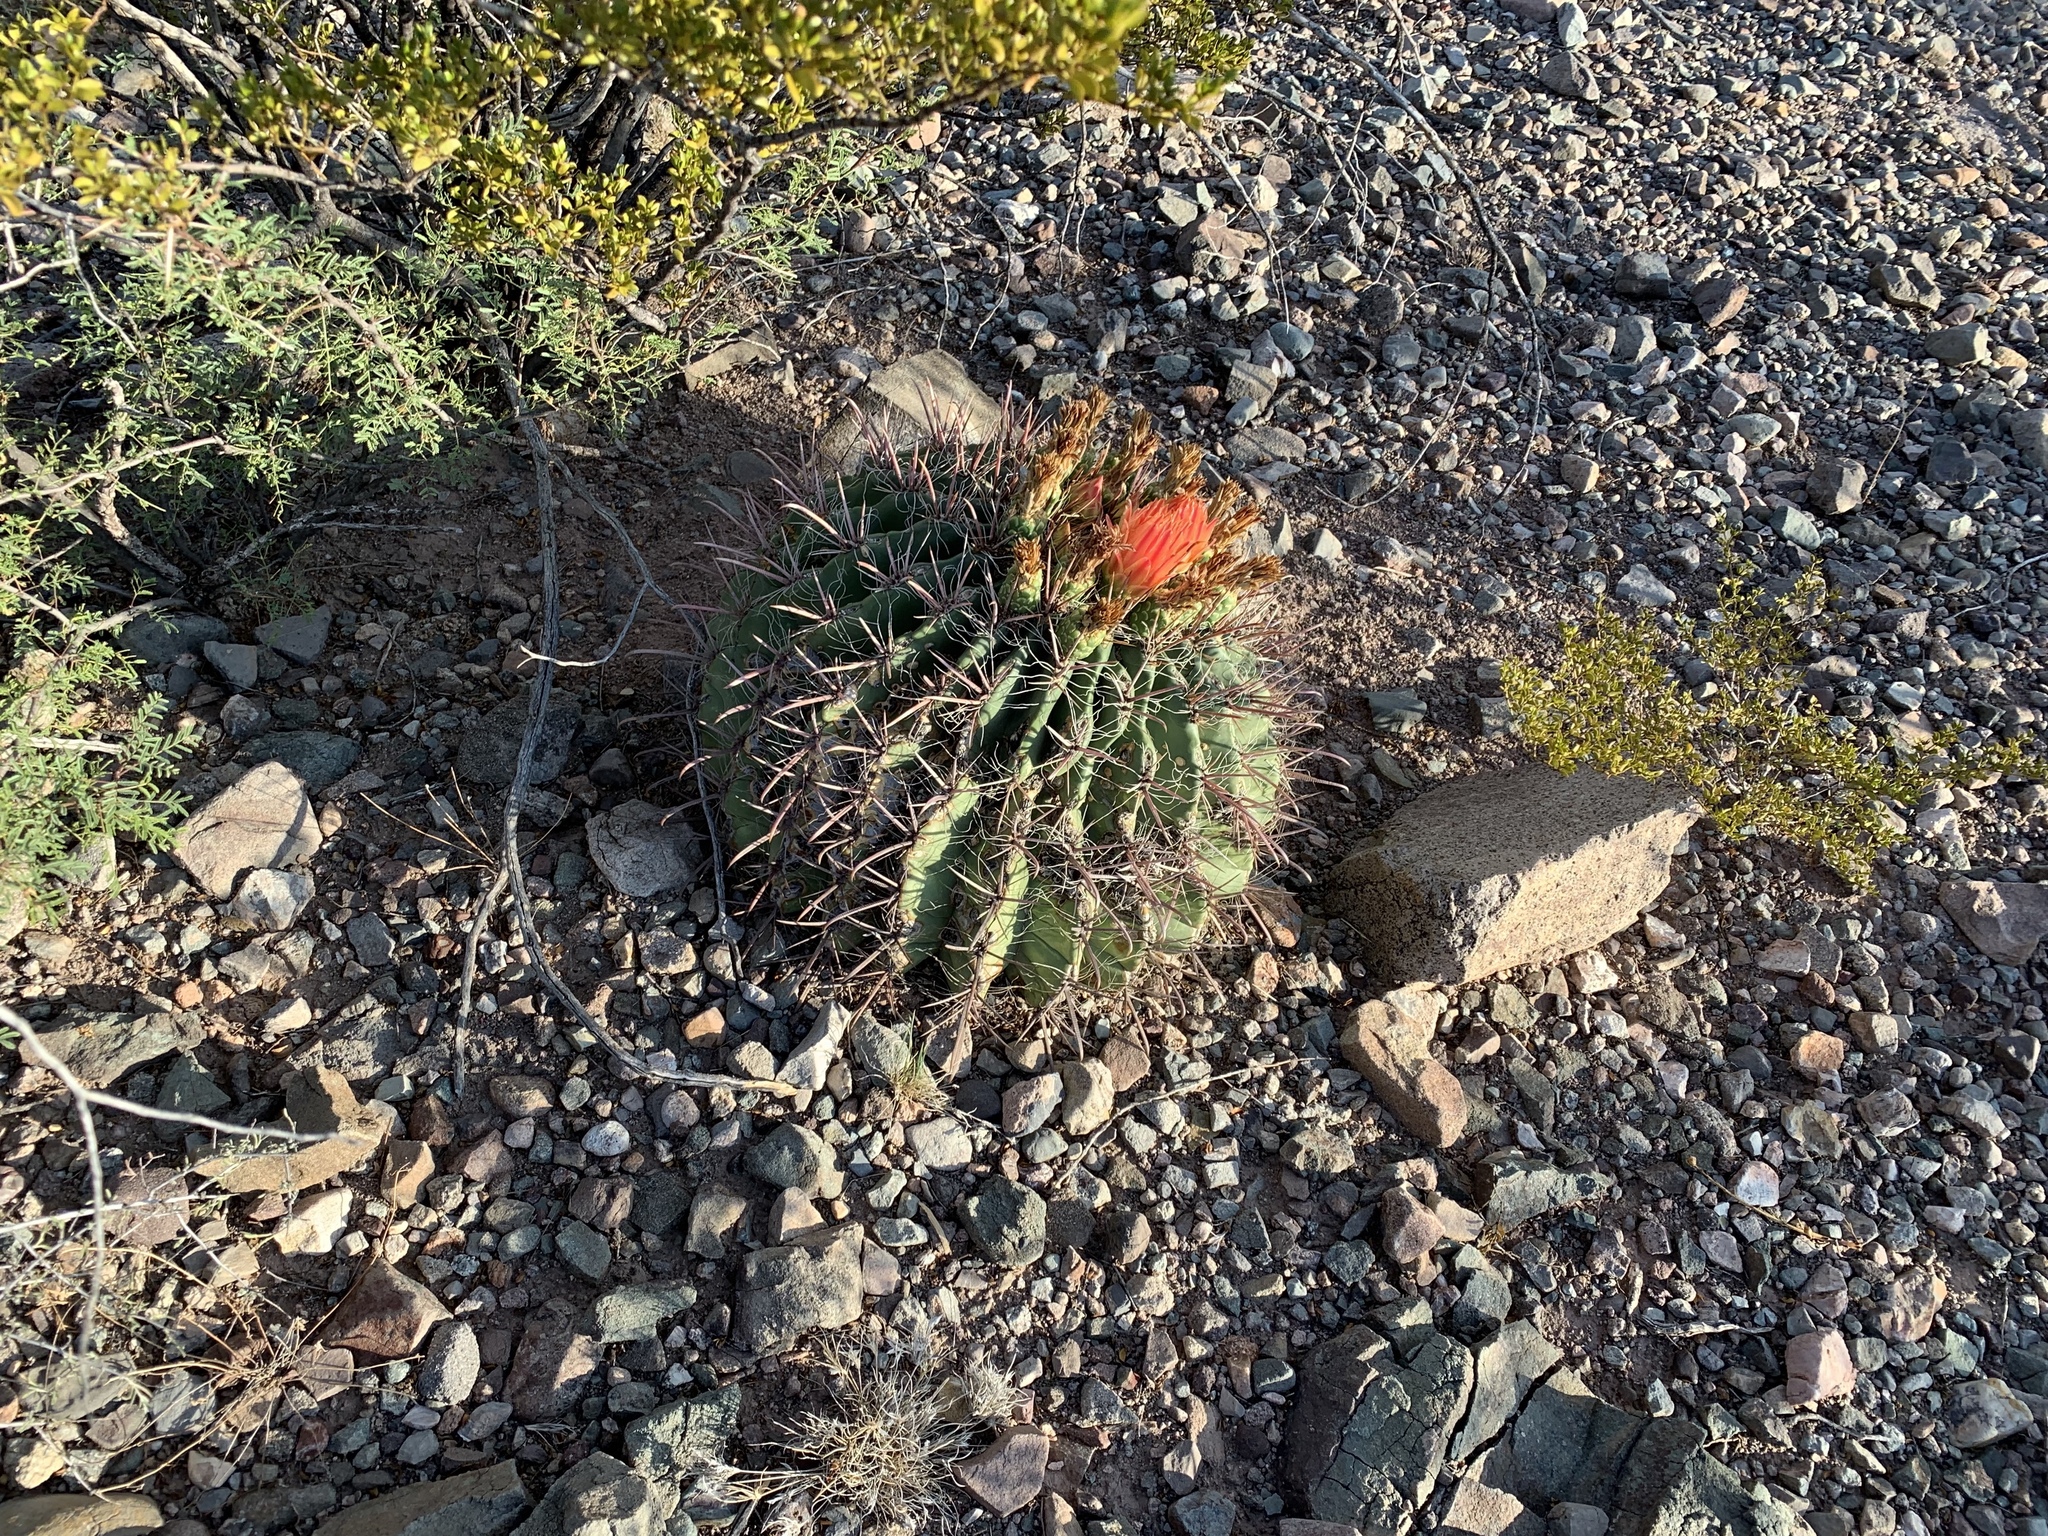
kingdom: Plantae
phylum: Tracheophyta
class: Magnoliopsida
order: Caryophyllales
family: Cactaceae
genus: Ferocactus
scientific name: Ferocactus wislizeni
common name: Candy barrel cactus
